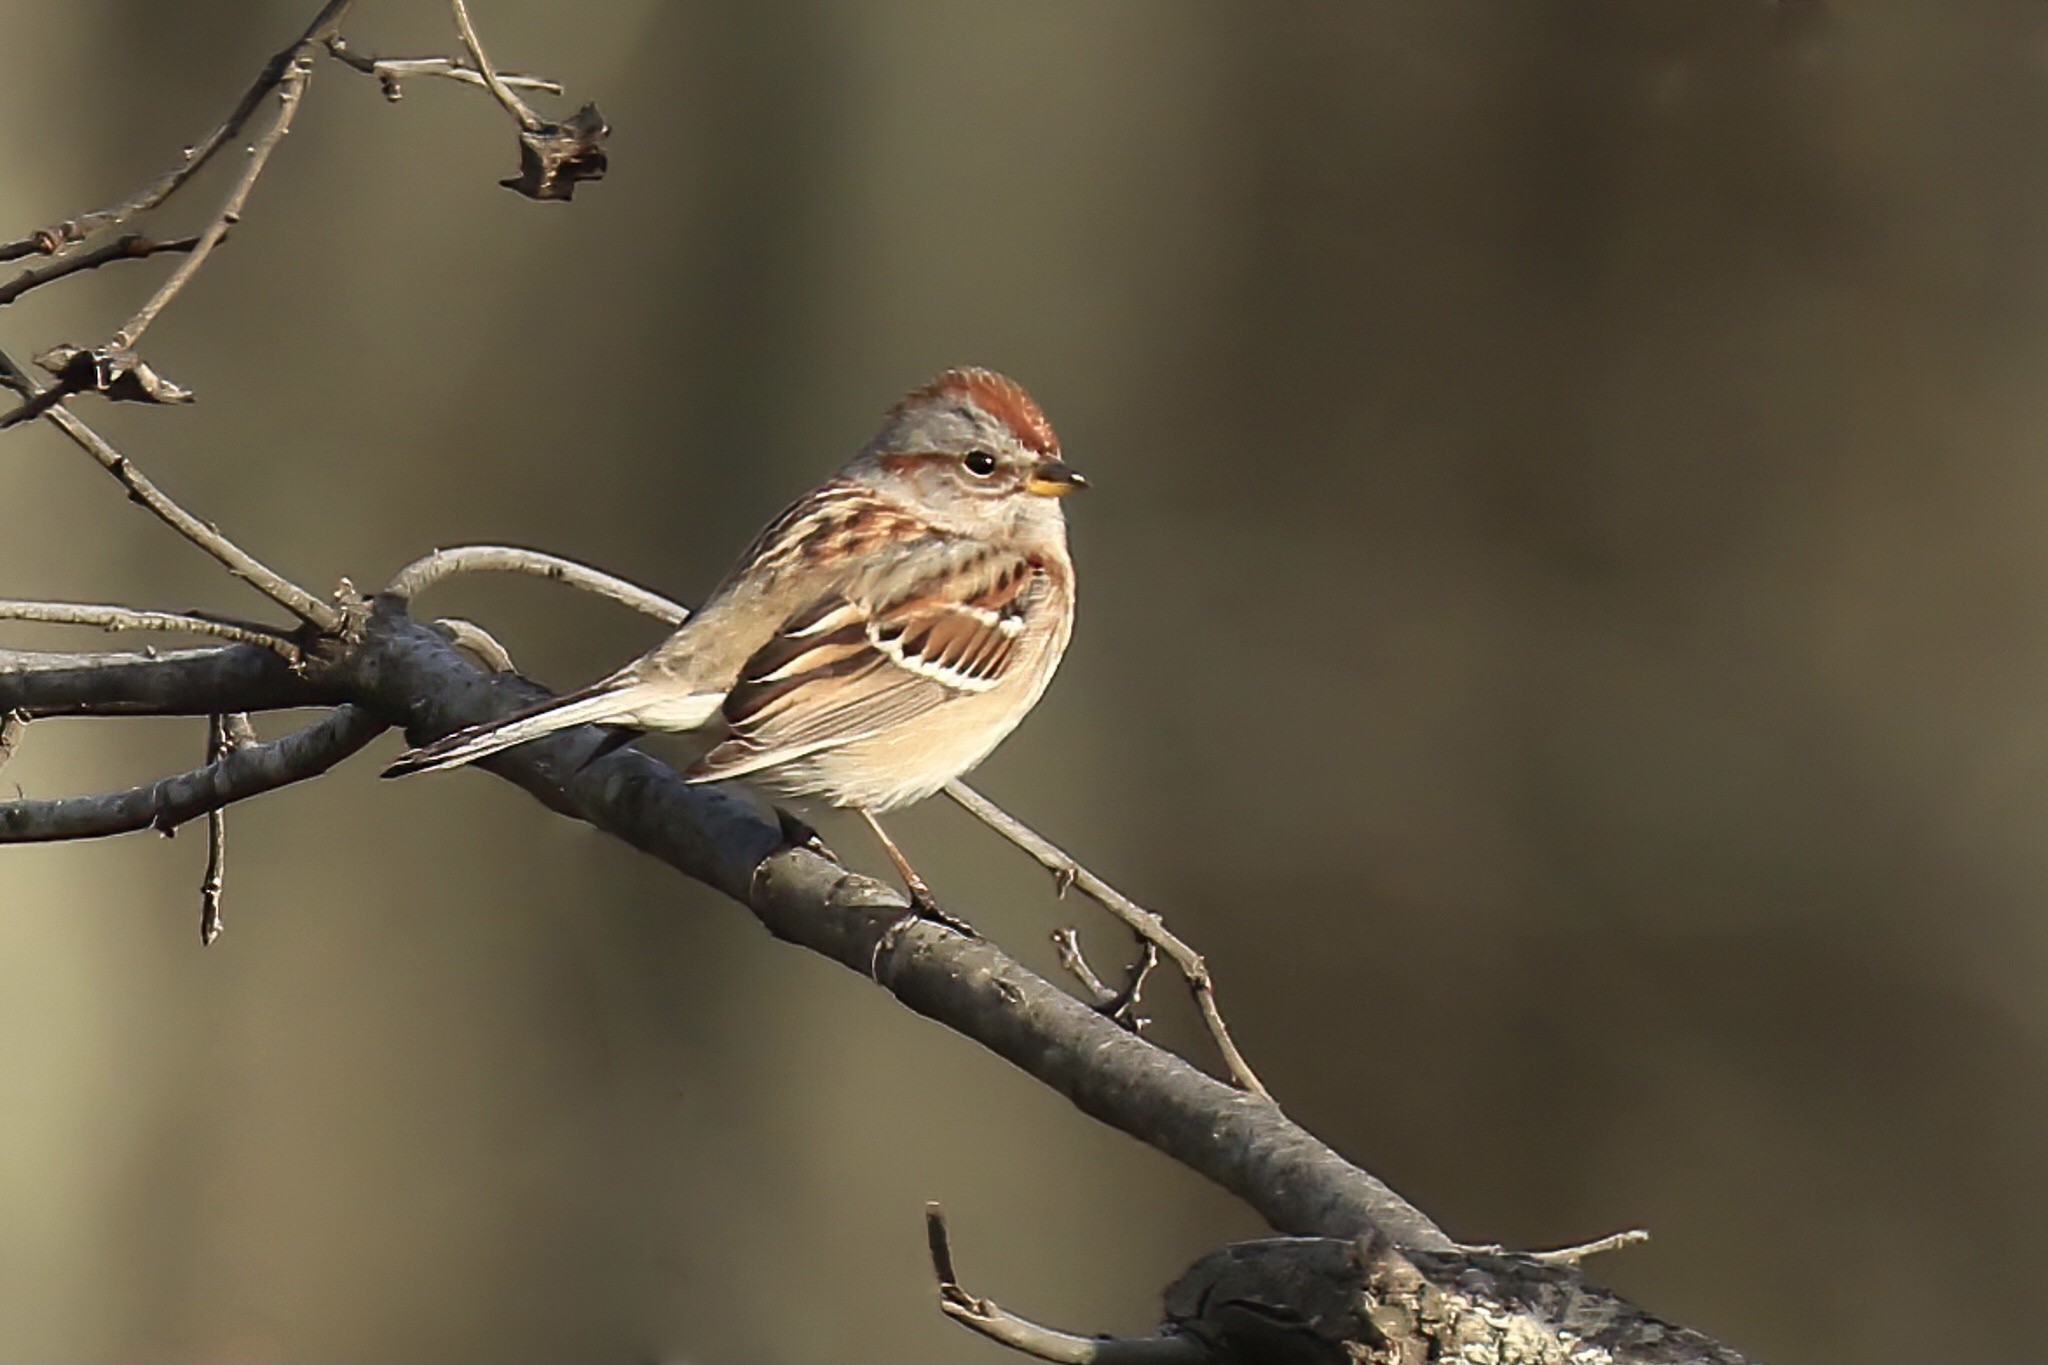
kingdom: Animalia
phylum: Chordata
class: Aves
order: Passeriformes
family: Passerellidae
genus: Spizelloides
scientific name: Spizelloides arborea
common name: American tree sparrow
